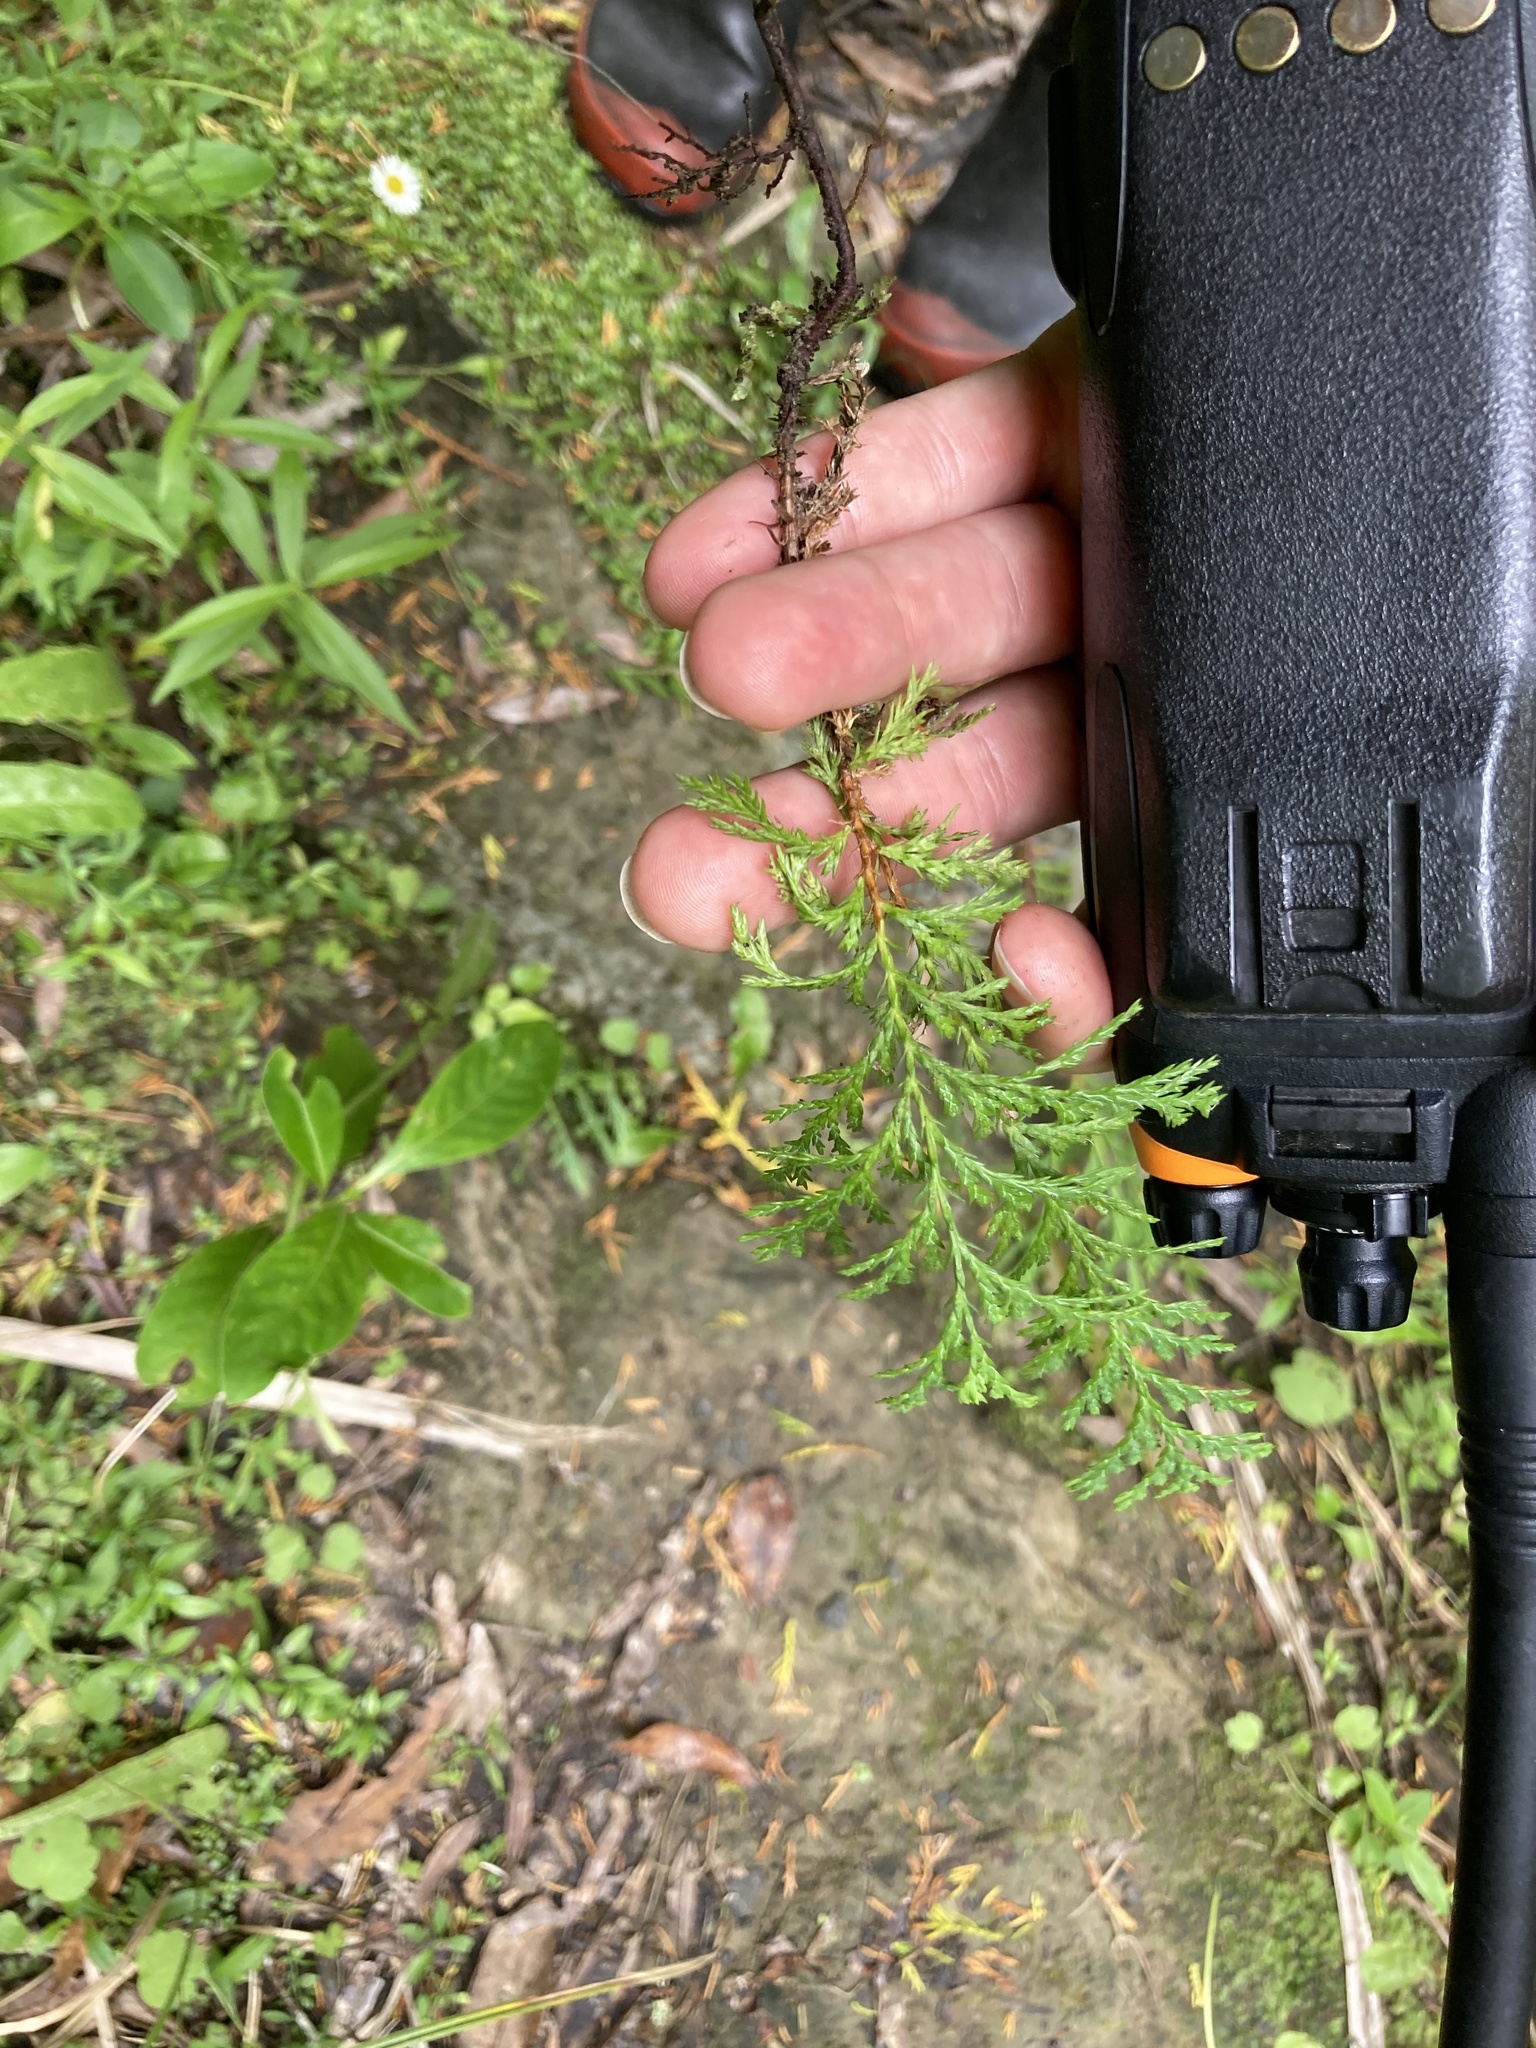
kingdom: Plantae
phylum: Tracheophyta
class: Pinopsida
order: Pinales
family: Cupressaceae
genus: Chamaecyparis
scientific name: Chamaecyparis lawsoniana
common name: Lawson's cypress
